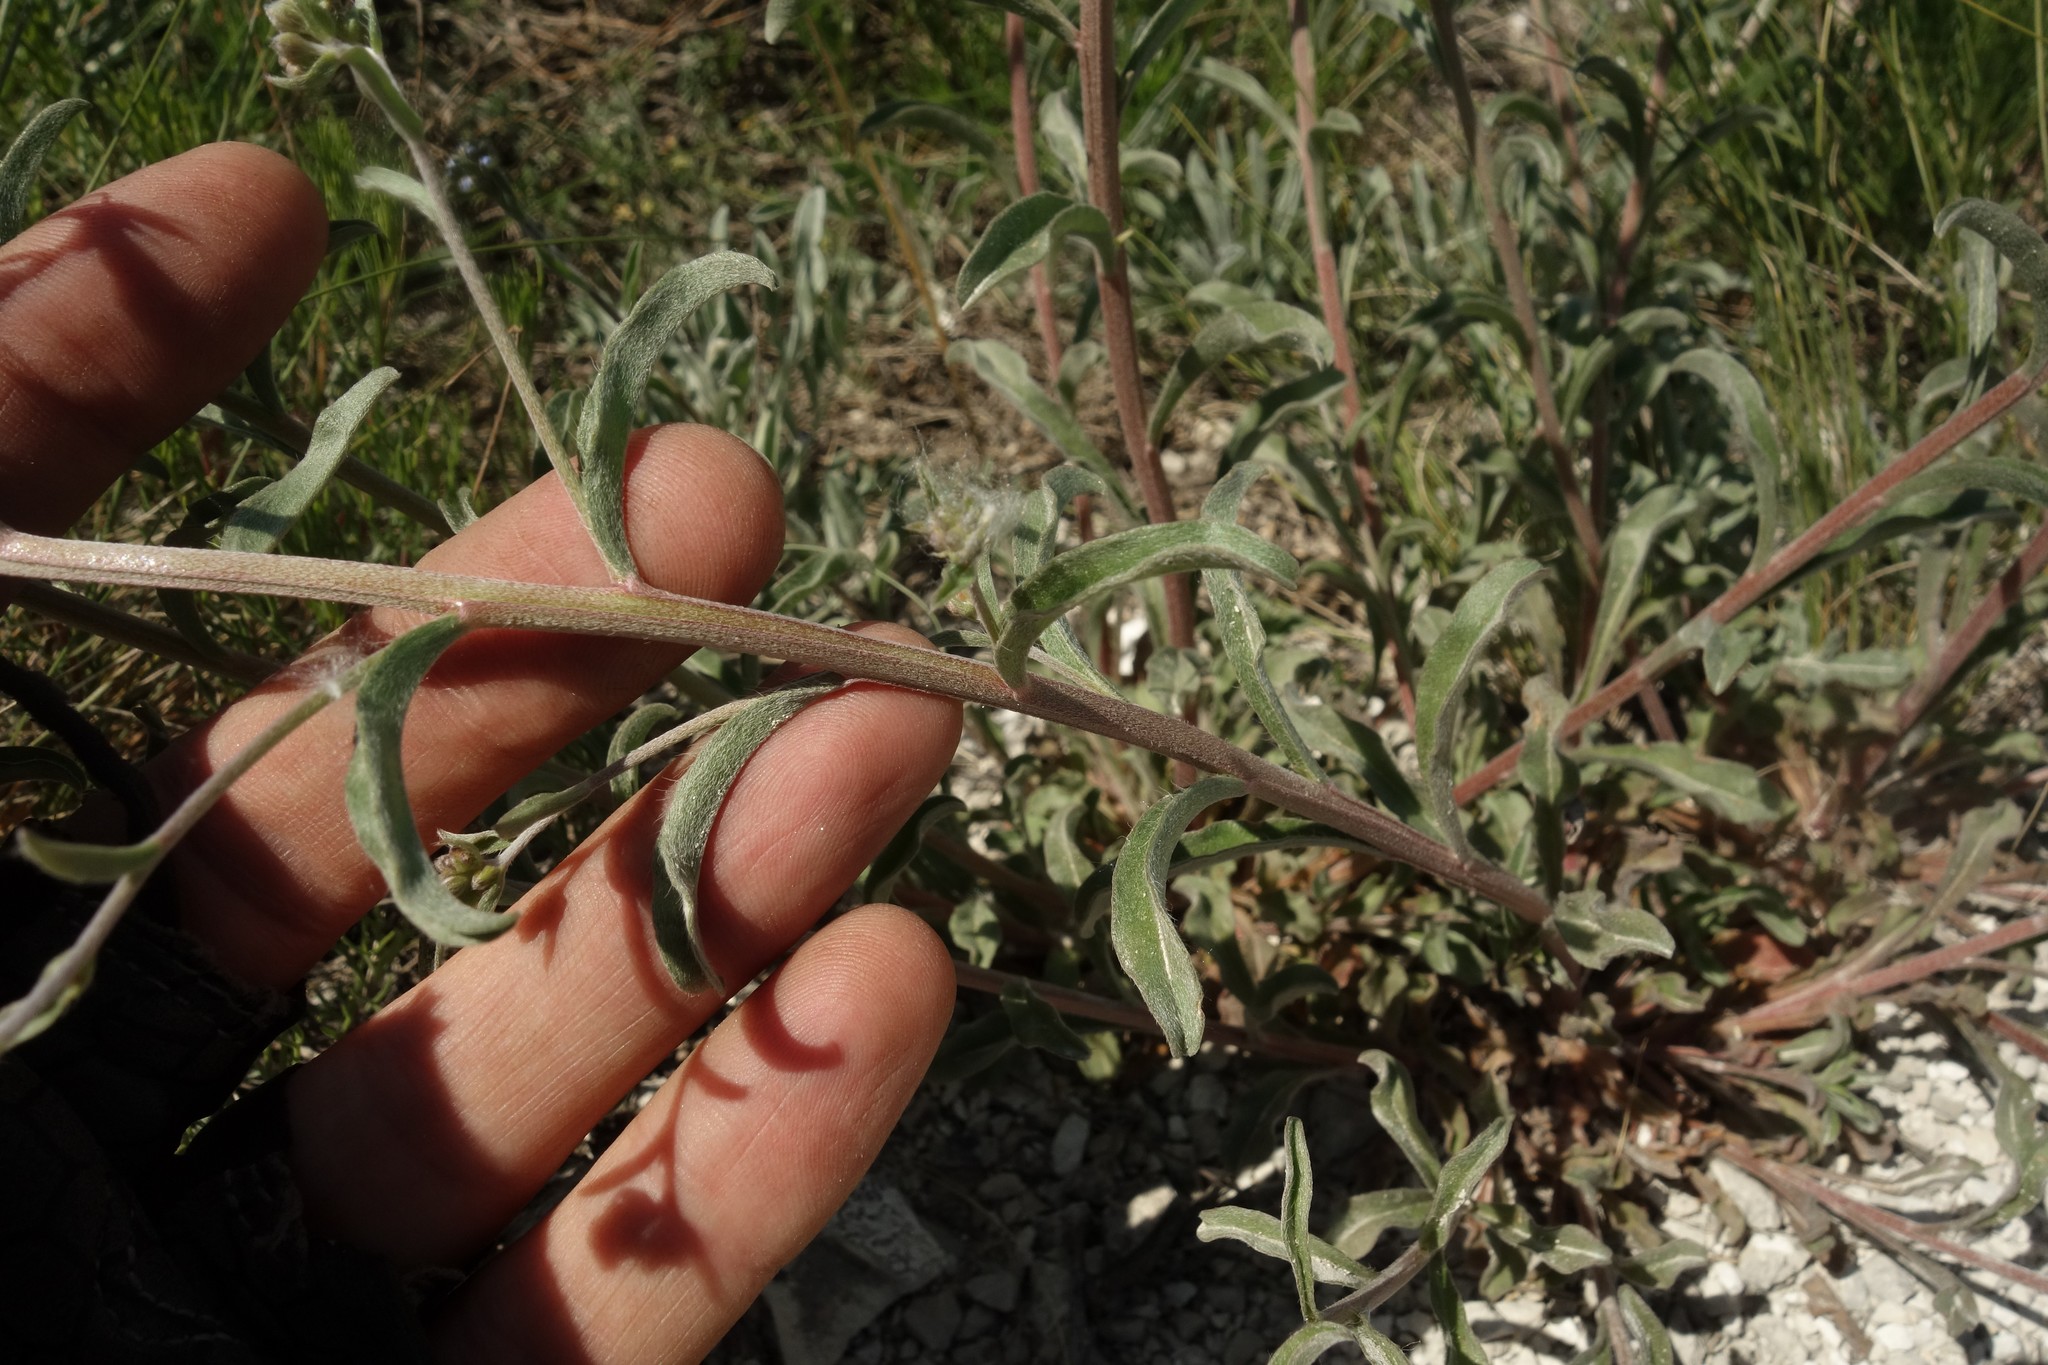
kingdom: Plantae
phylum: Tracheophyta
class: Magnoliopsida
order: Boraginales
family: Boraginaceae
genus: Lappula
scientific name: Lappula barbata
